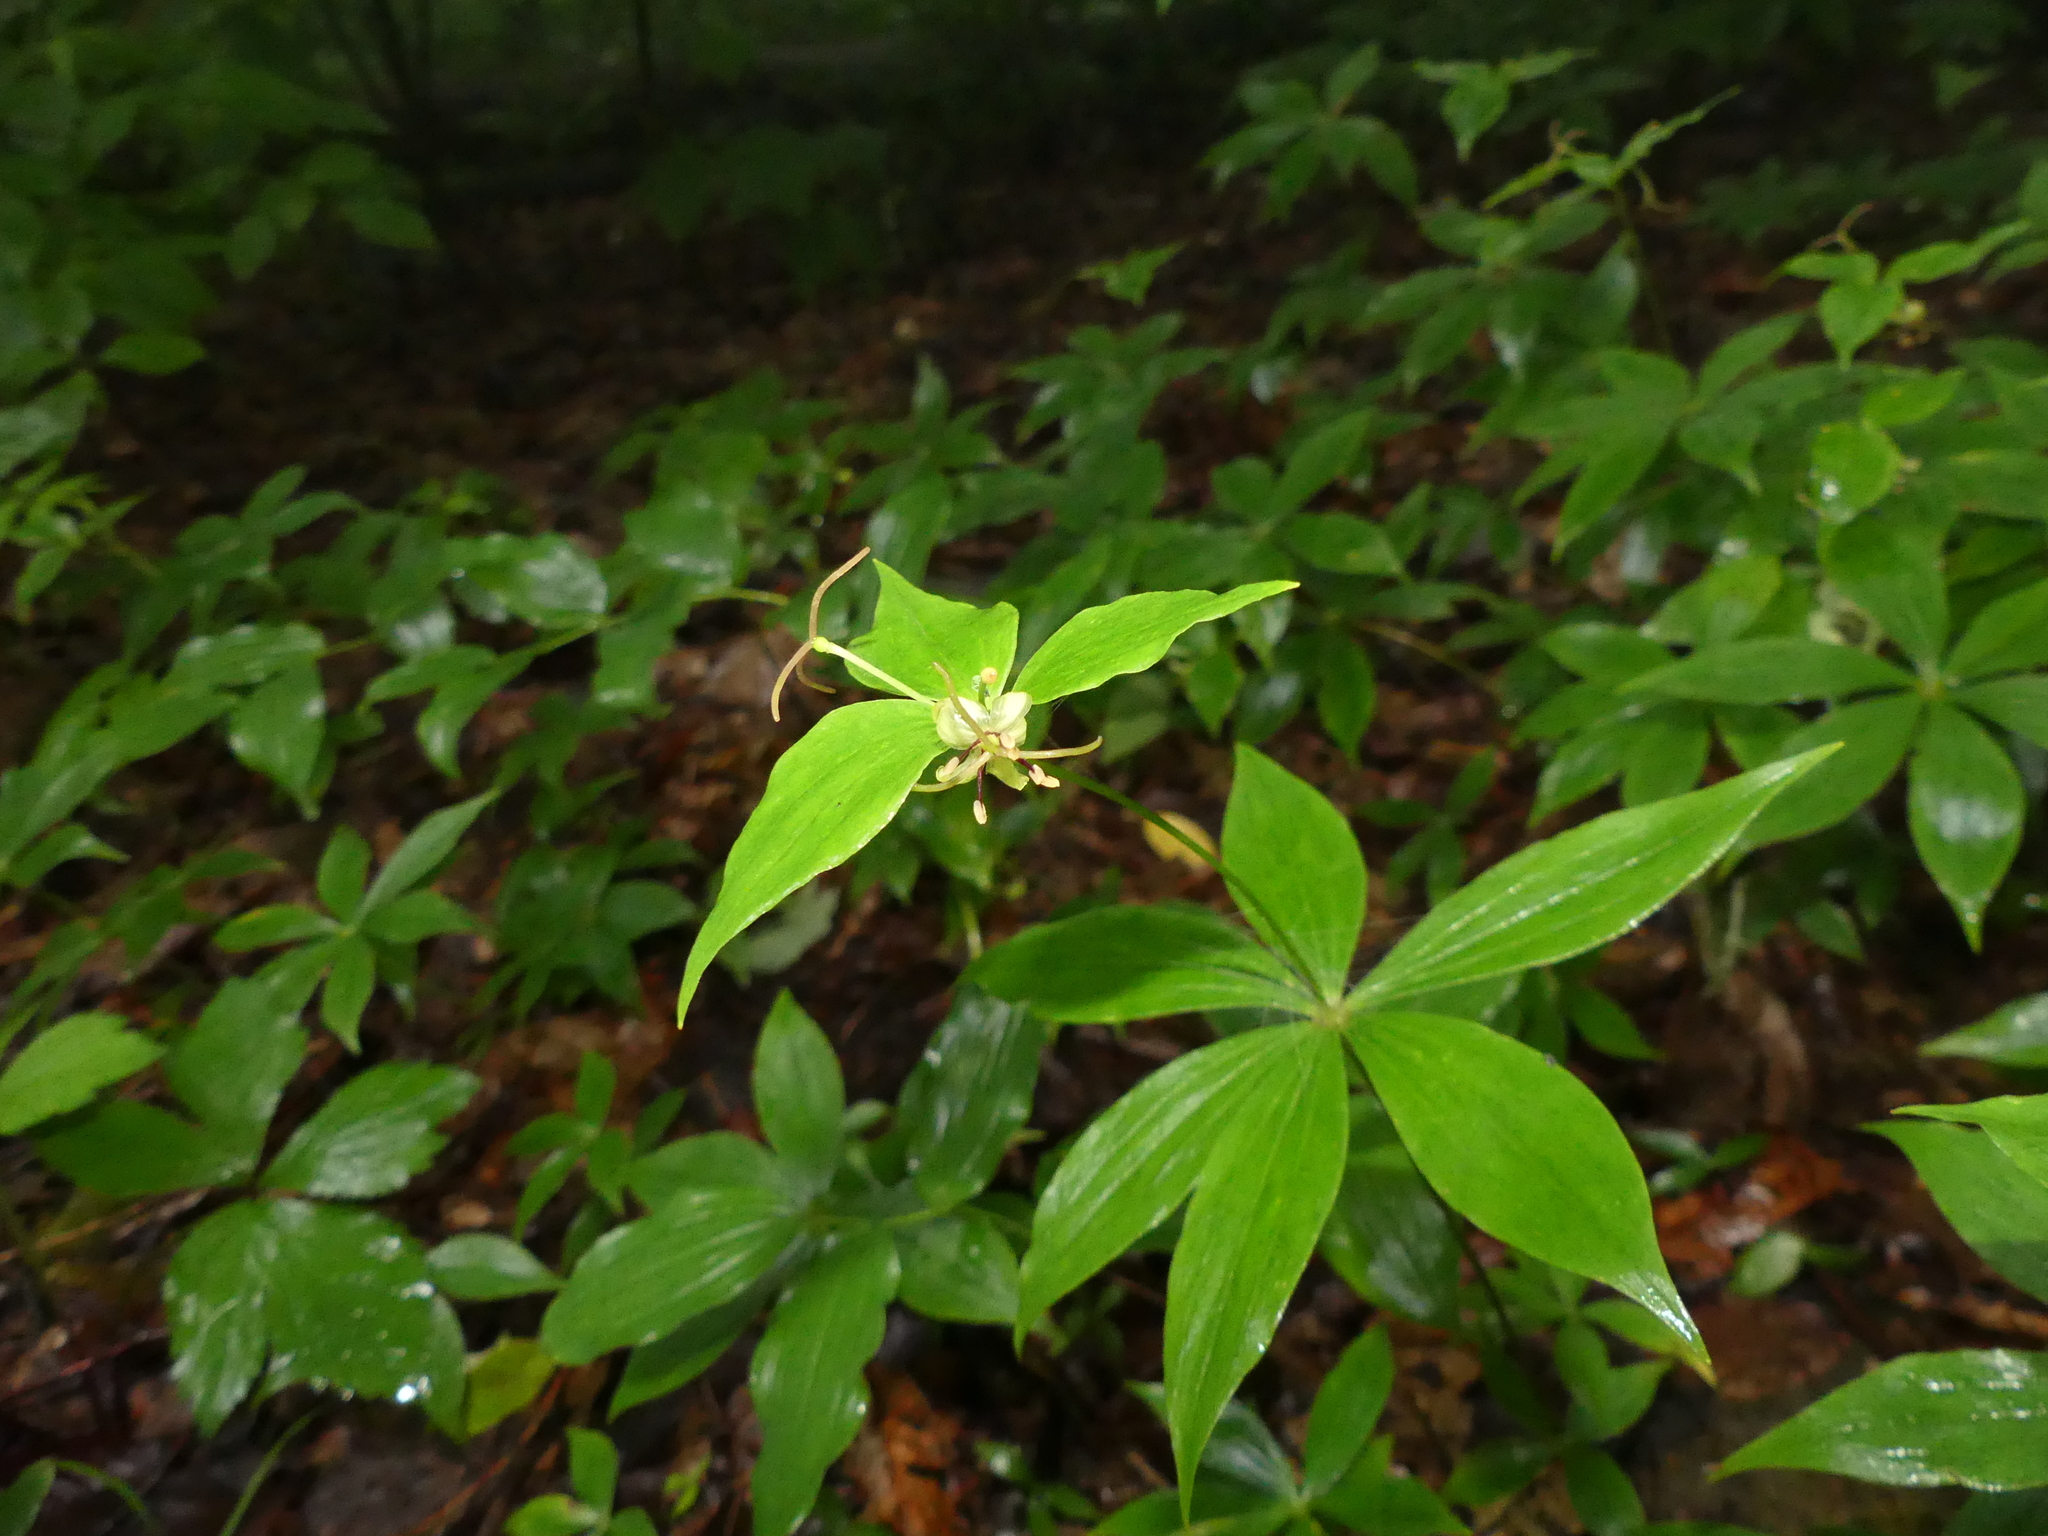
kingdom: Plantae
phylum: Tracheophyta
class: Liliopsida
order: Liliales
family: Liliaceae
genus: Medeola
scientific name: Medeola virginiana
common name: Indian cucumber-root
